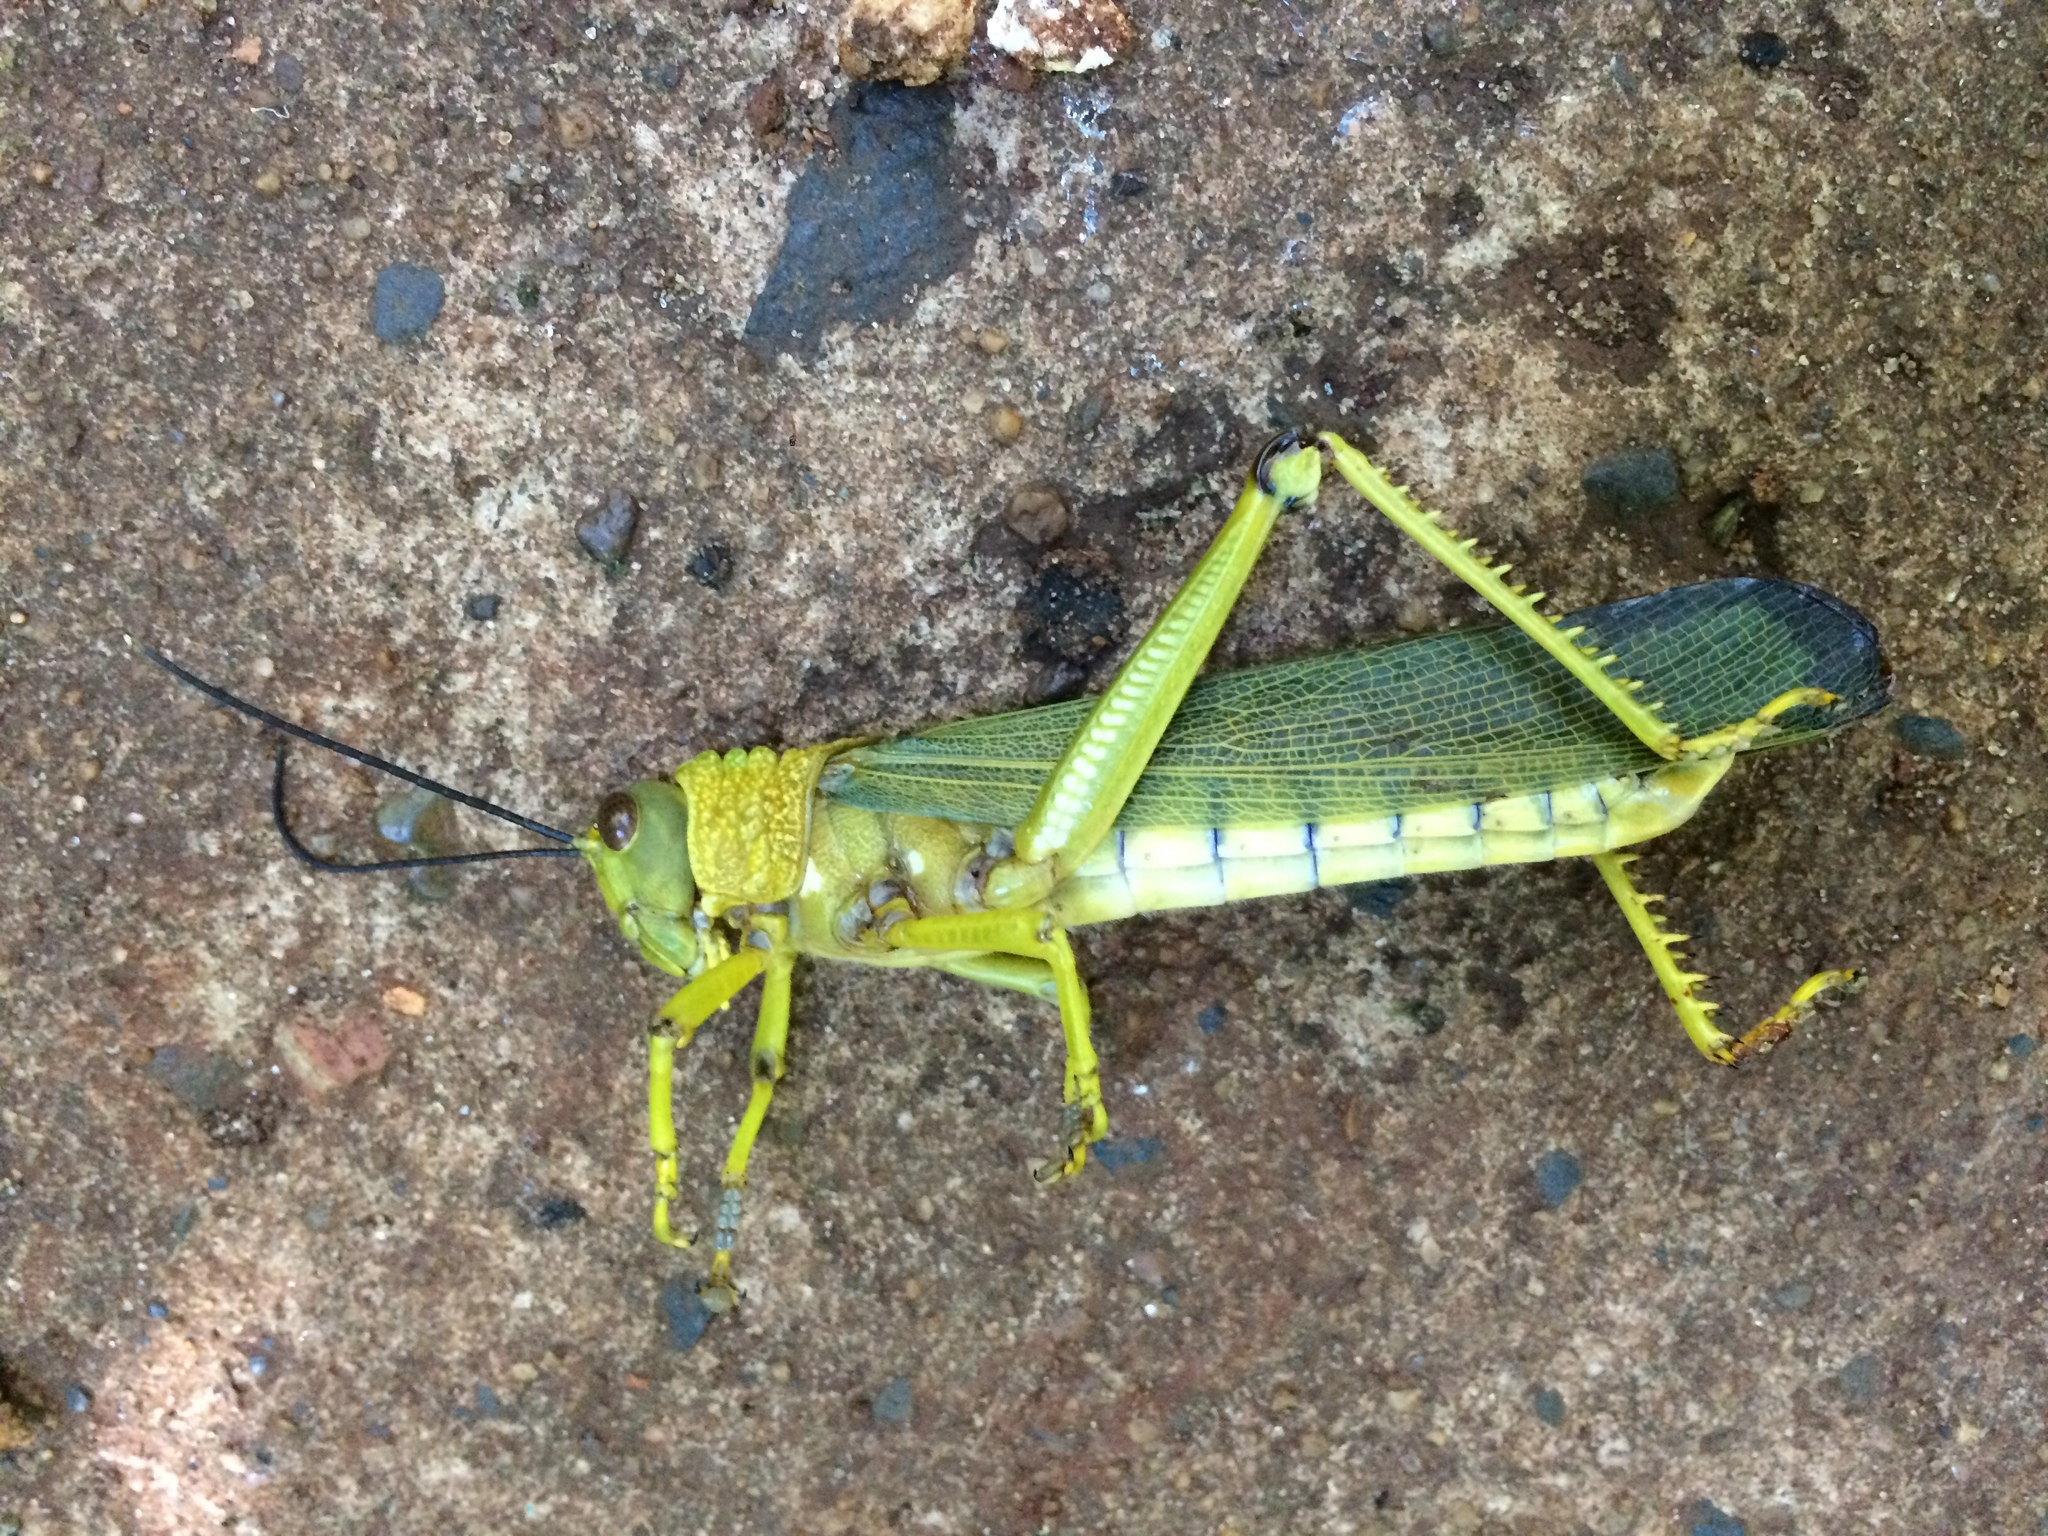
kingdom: Animalia
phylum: Arthropoda
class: Insecta
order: Orthoptera
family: Romaleidae
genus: Tropidacris
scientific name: Tropidacris cristata
